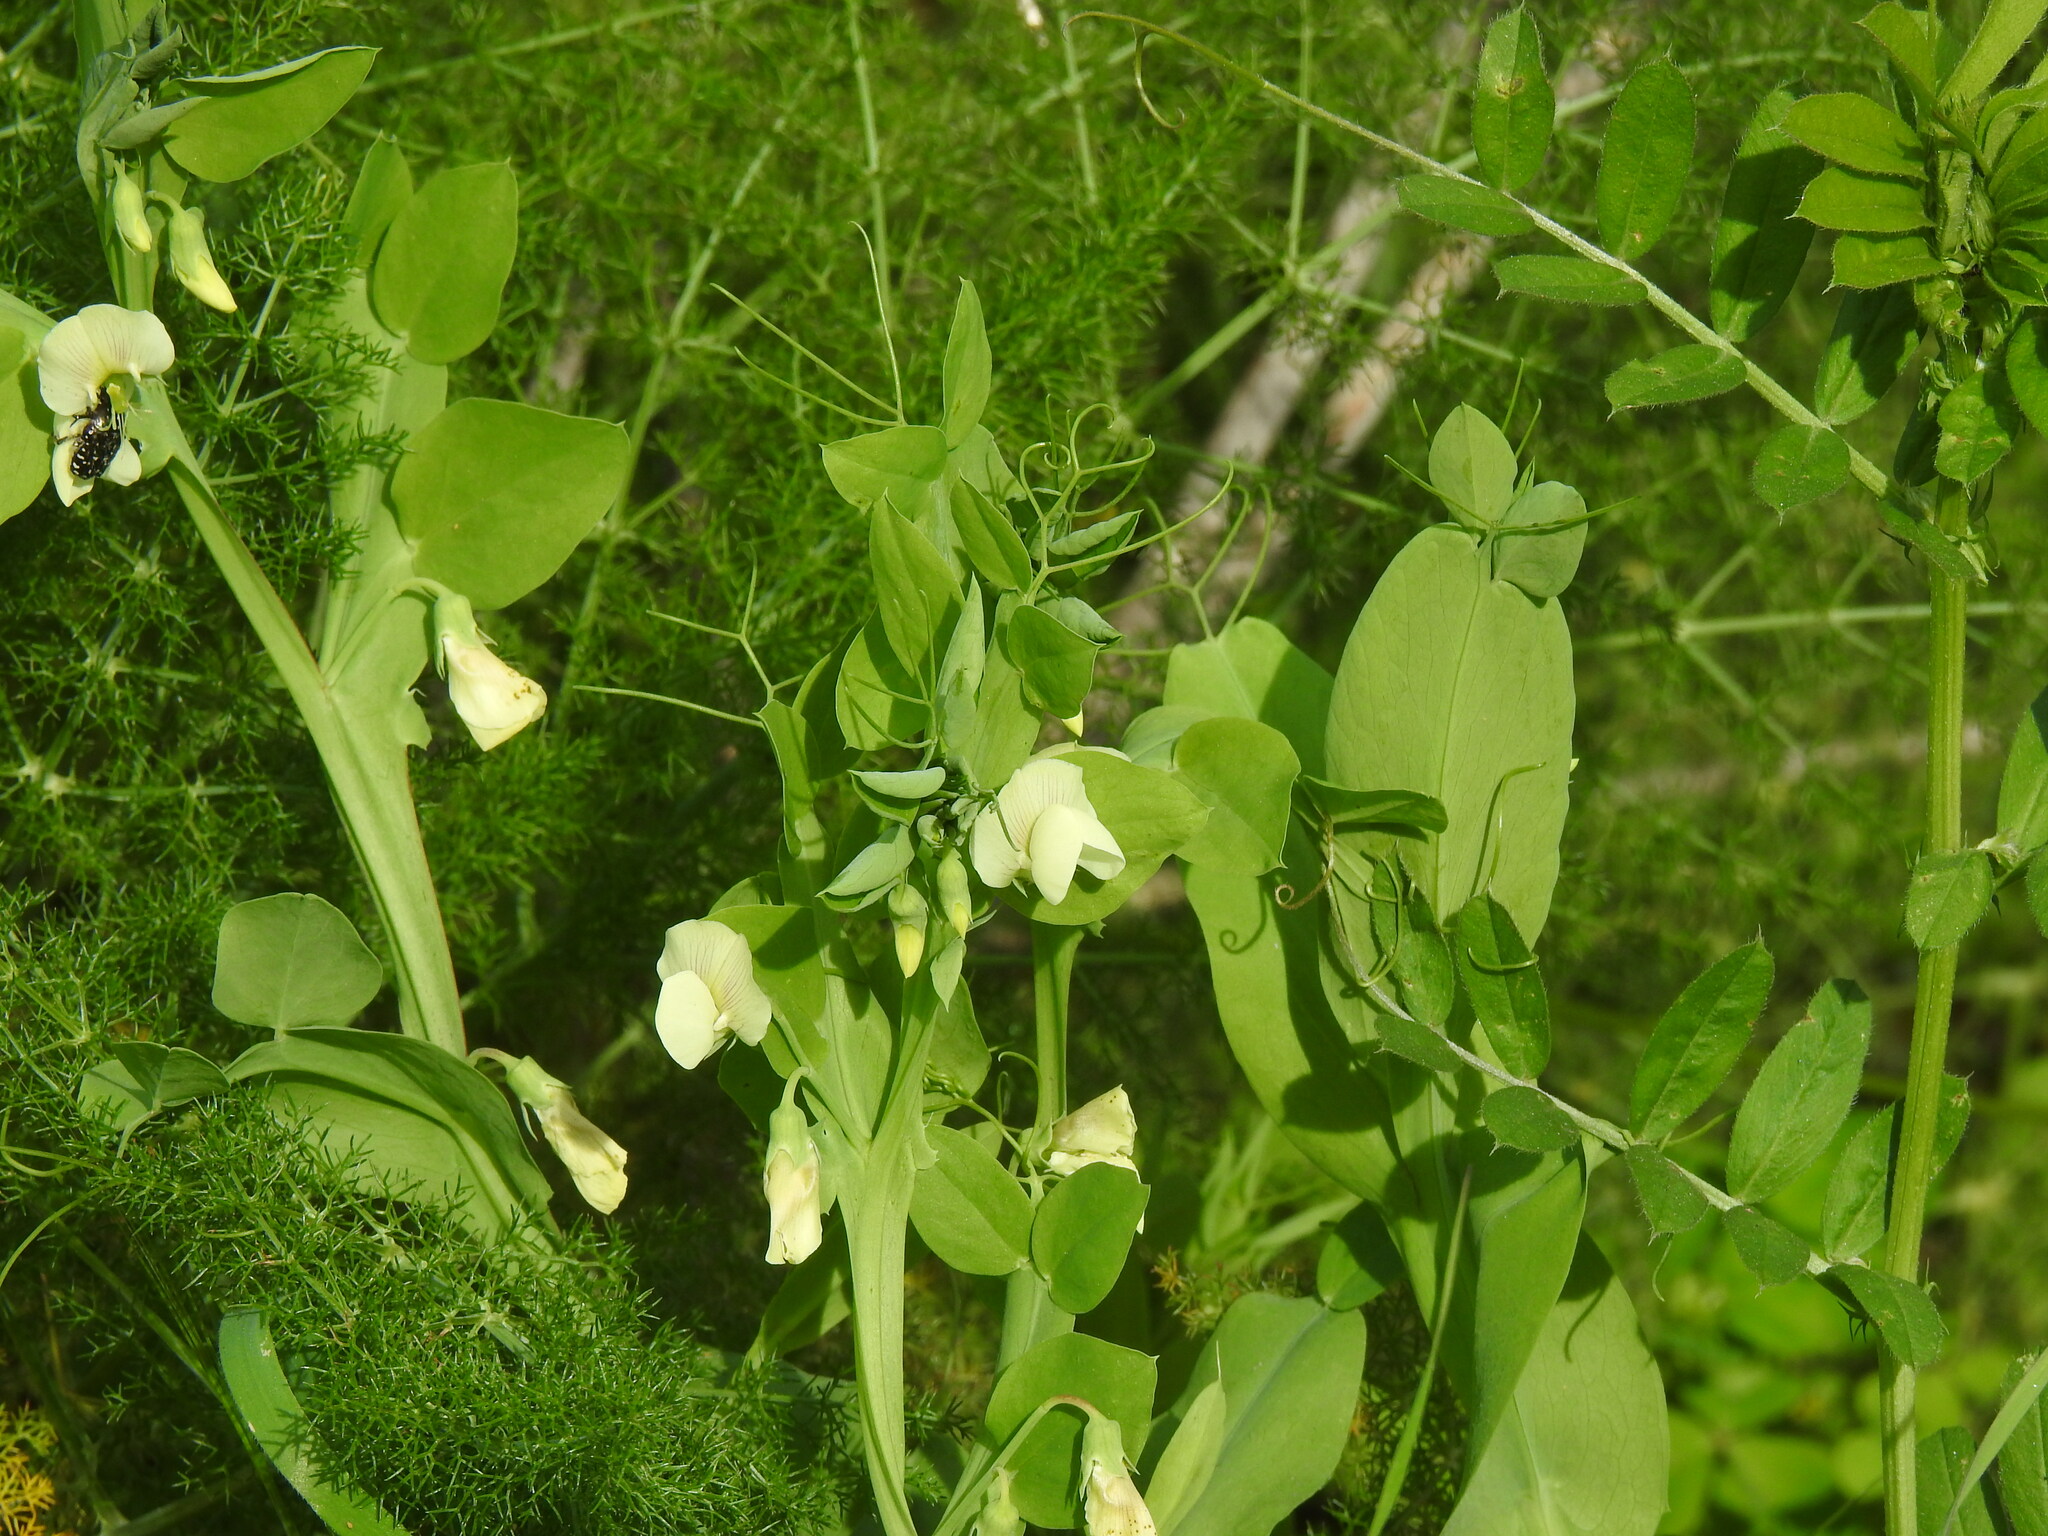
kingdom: Plantae
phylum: Tracheophyta
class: Magnoliopsida
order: Fabales
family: Fabaceae
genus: Lathyrus
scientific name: Lathyrus ochrus
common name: Winged vetchling
